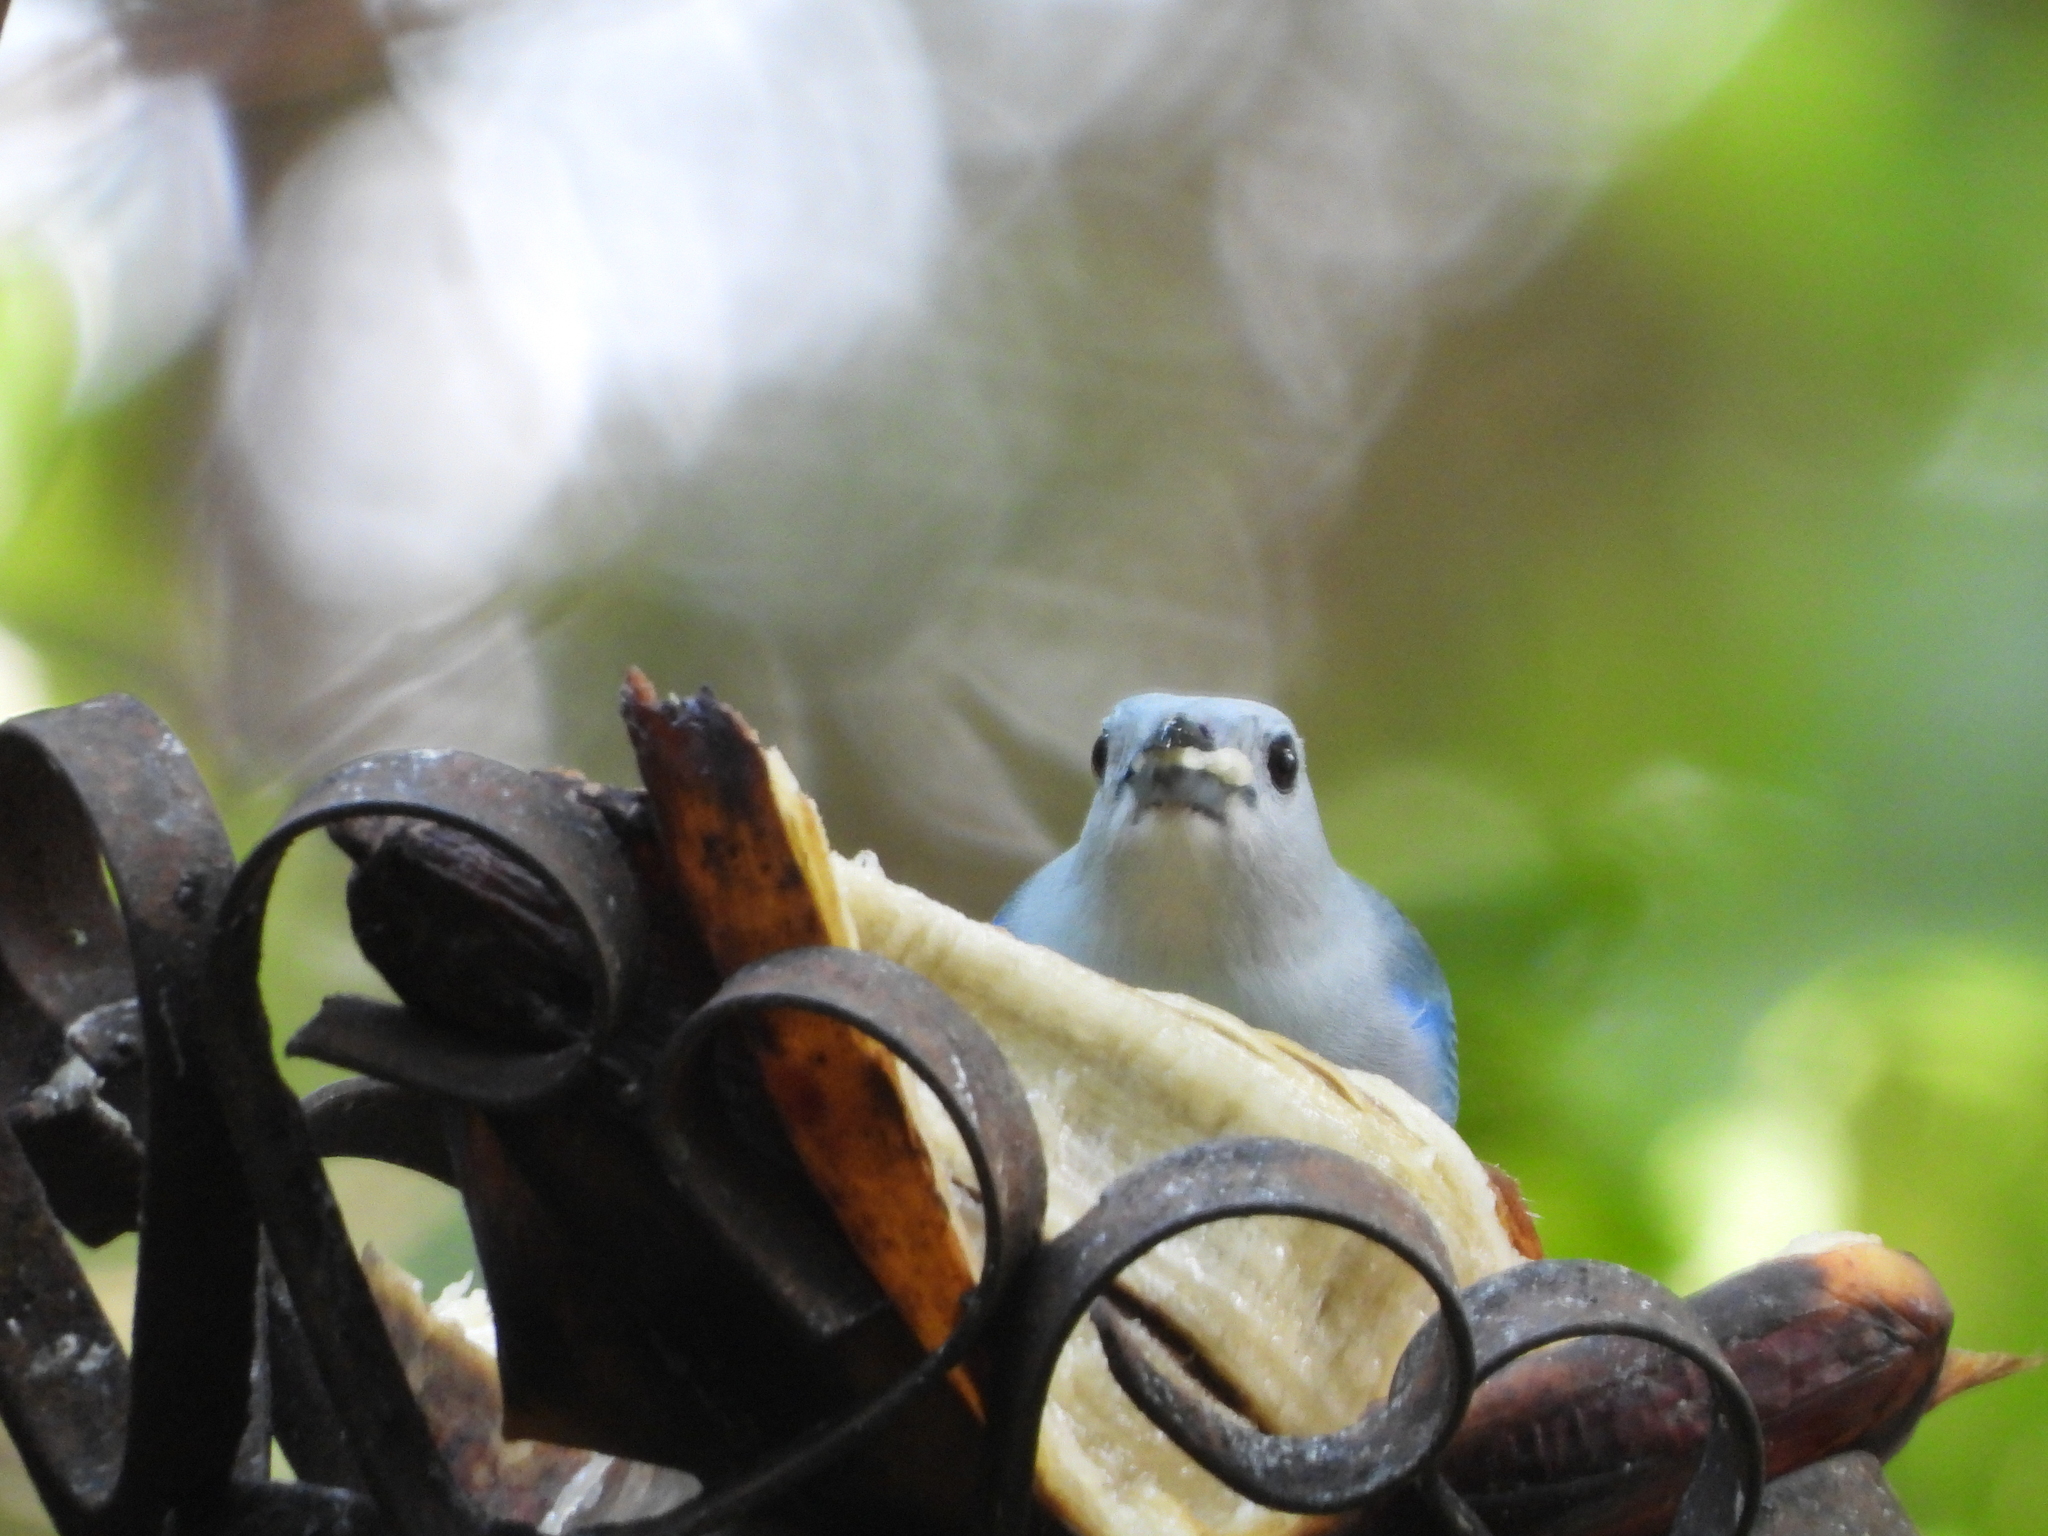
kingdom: Animalia
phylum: Chordata
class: Aves
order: Passeriformes
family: Thraupidae
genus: Thraupis
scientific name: Thraupis episcopus
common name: Blue-grey tanager
